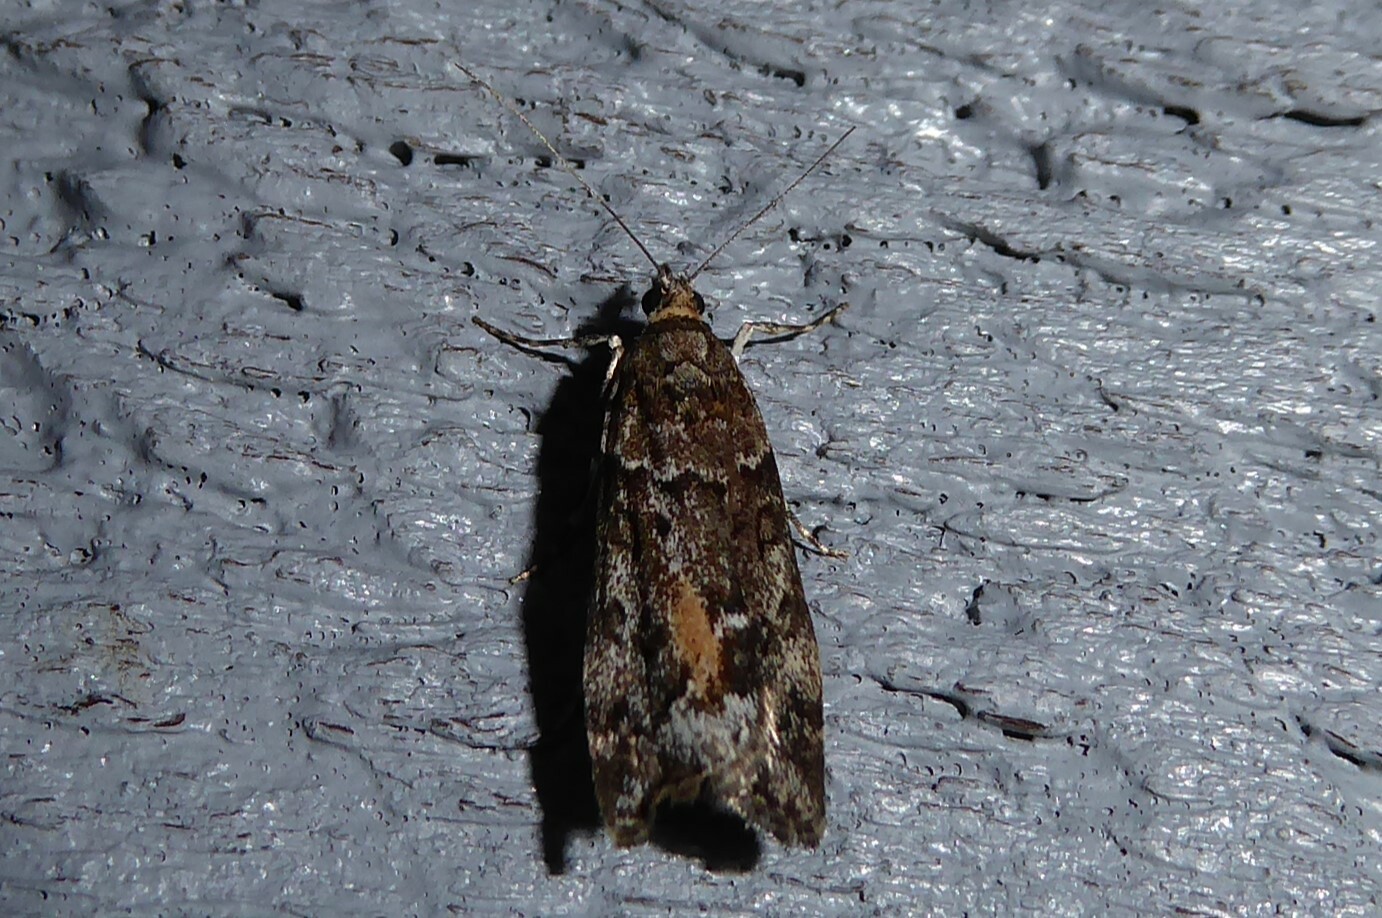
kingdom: Animalia
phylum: Arthropoda
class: Insecta
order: Lepidoptera
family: Crambidae
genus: Eudonia
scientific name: Eudonia submarginalis
